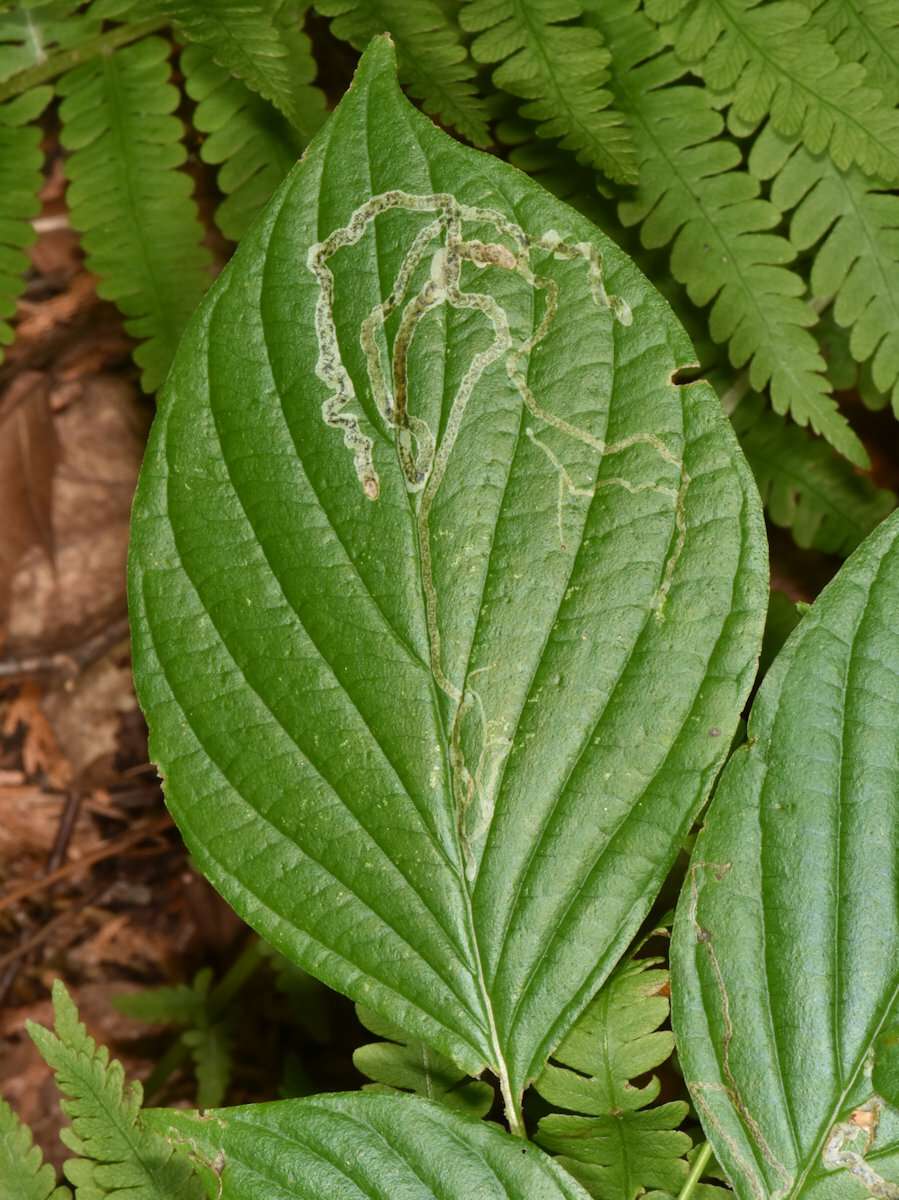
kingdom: Animalia
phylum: Arthropoda
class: Insecta
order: Diptera
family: Agromyzidae
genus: Phytomyza
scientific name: Phytomyza agromyzina
